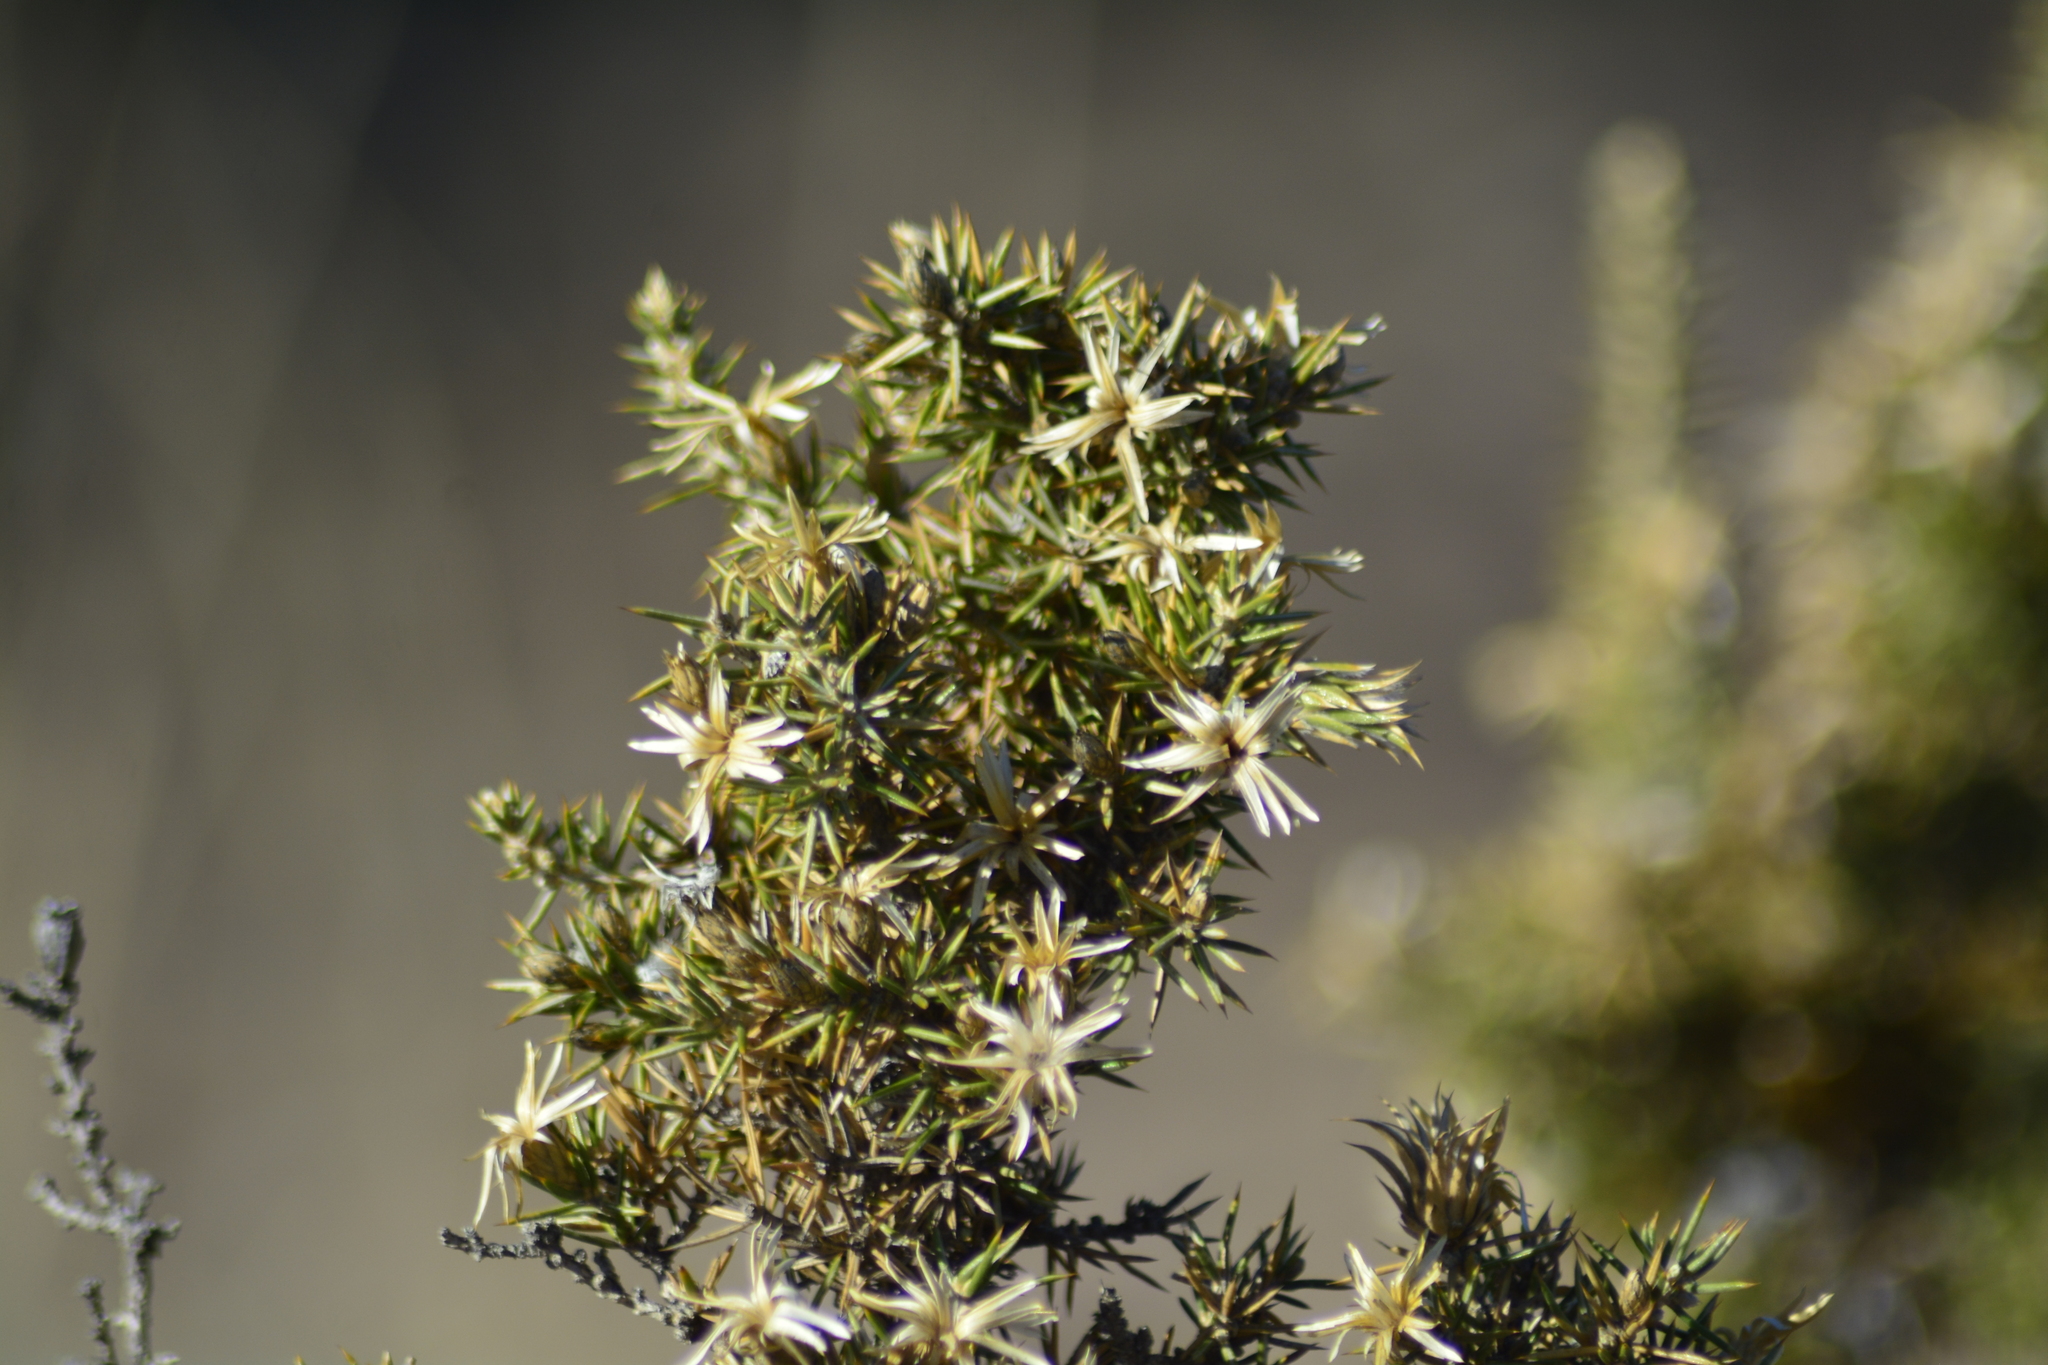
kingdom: Plantae
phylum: Tracheophyta
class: Magnoliopsida
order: Asterales
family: Asteraceae
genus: Chuquiraga
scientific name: Chuquiraga erinacea
